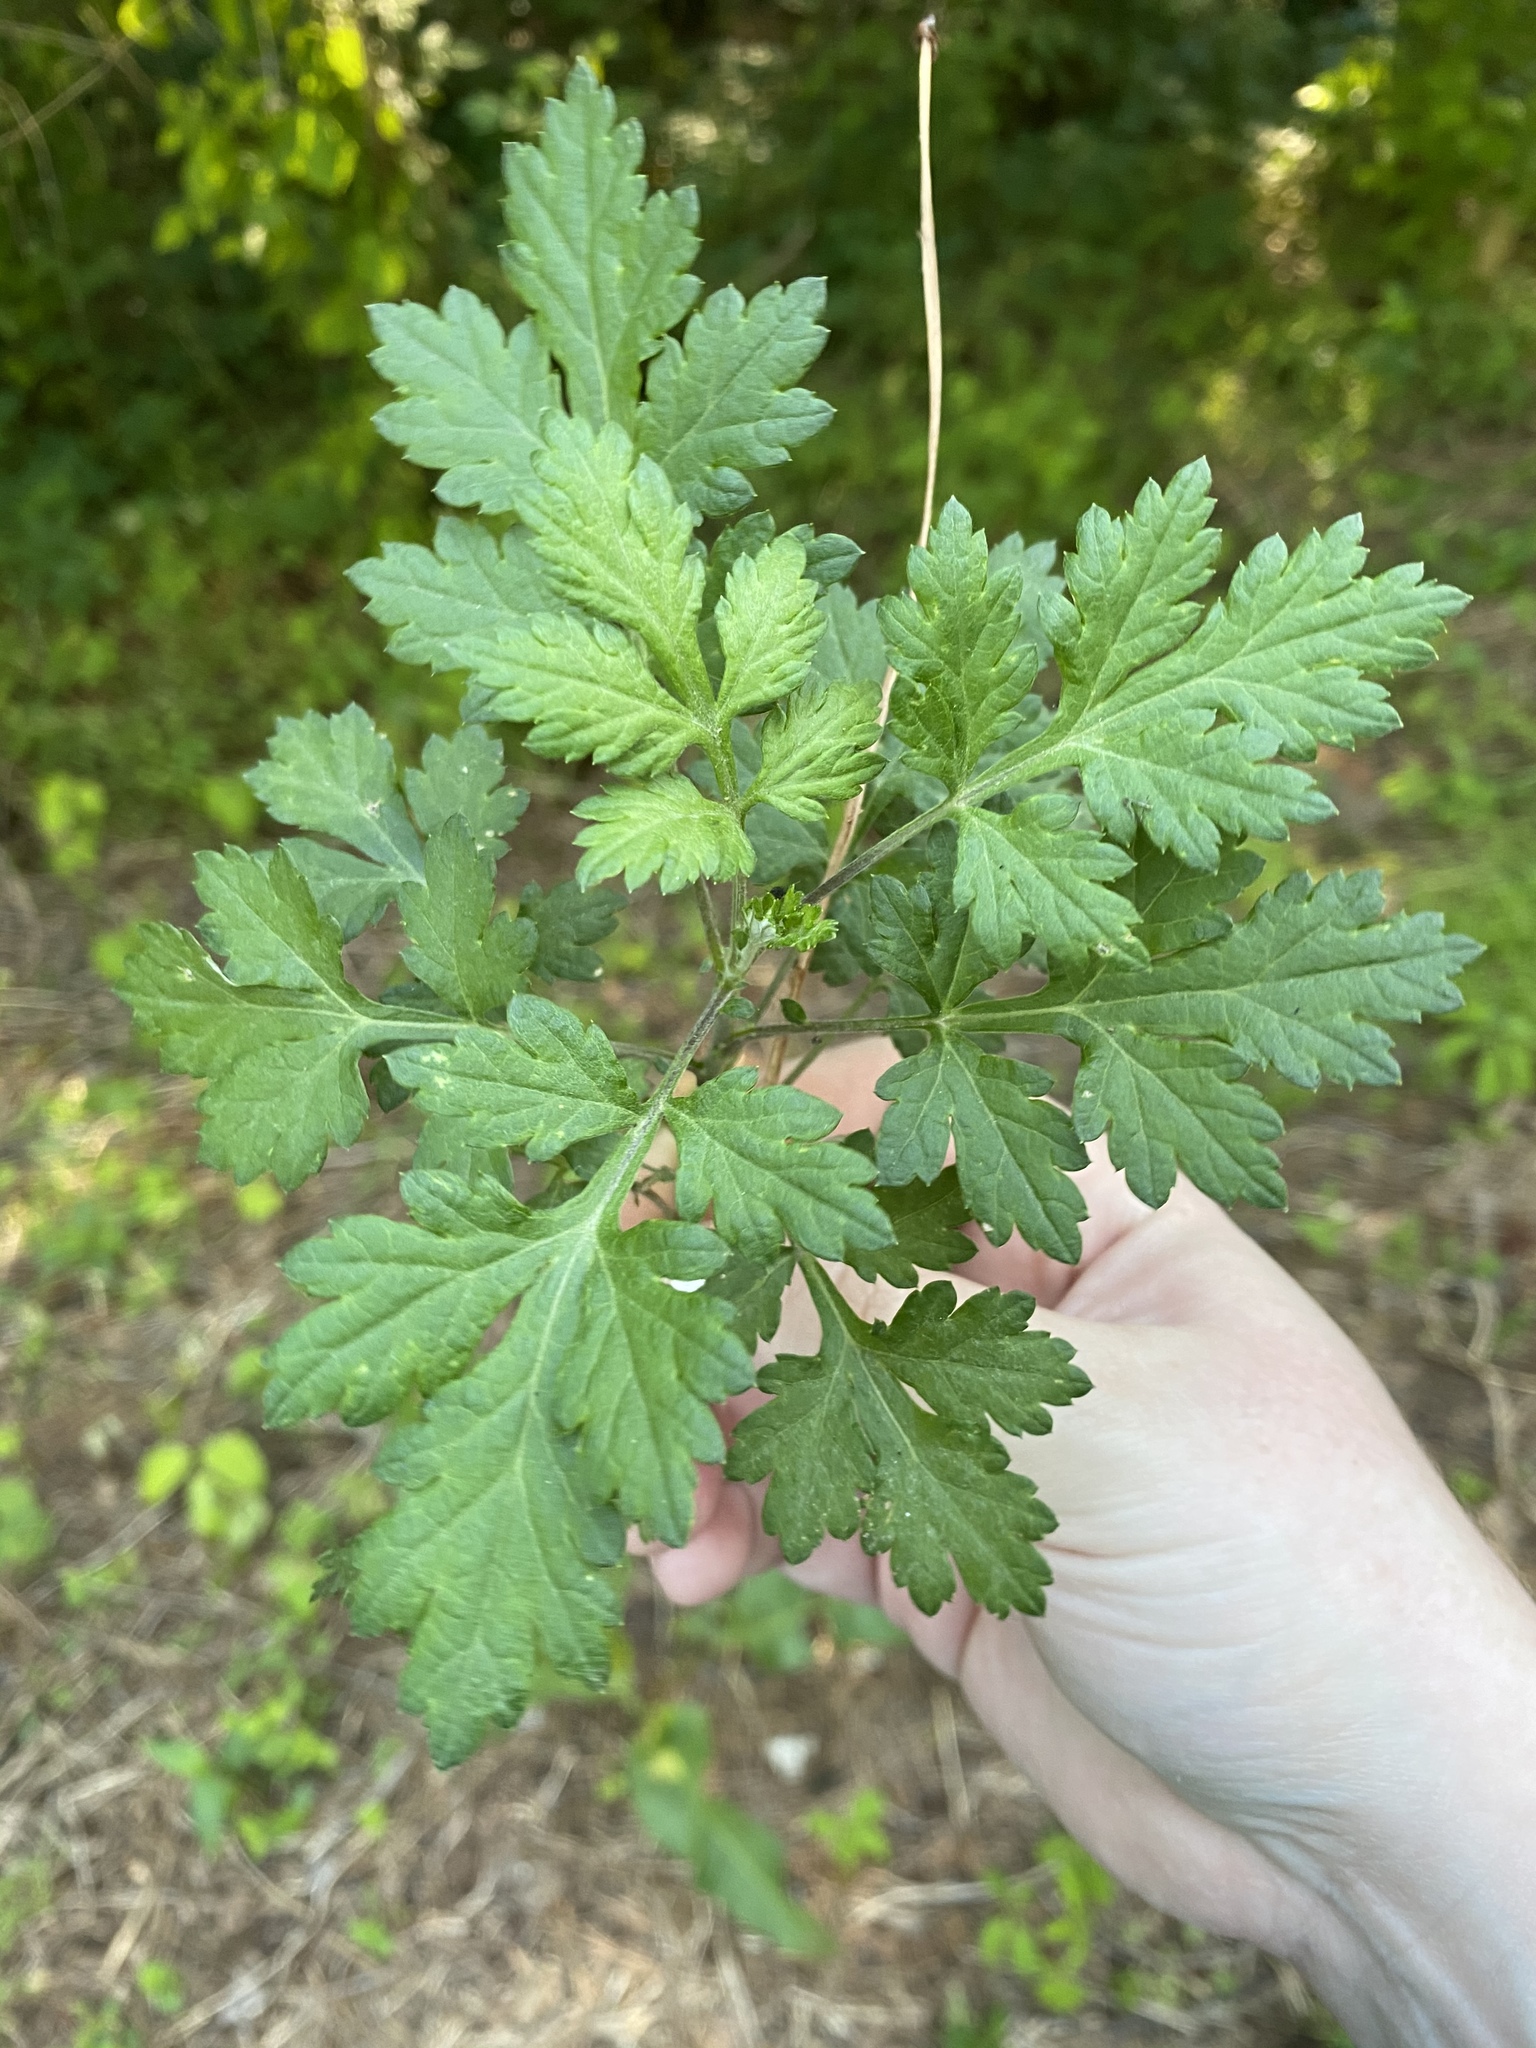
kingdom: Plantae
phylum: Tracheophyta
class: Magnoliopsida
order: Asterales
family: Asteraceae
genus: Artemisia
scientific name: Artemisia vulgaris
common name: Mugwort
